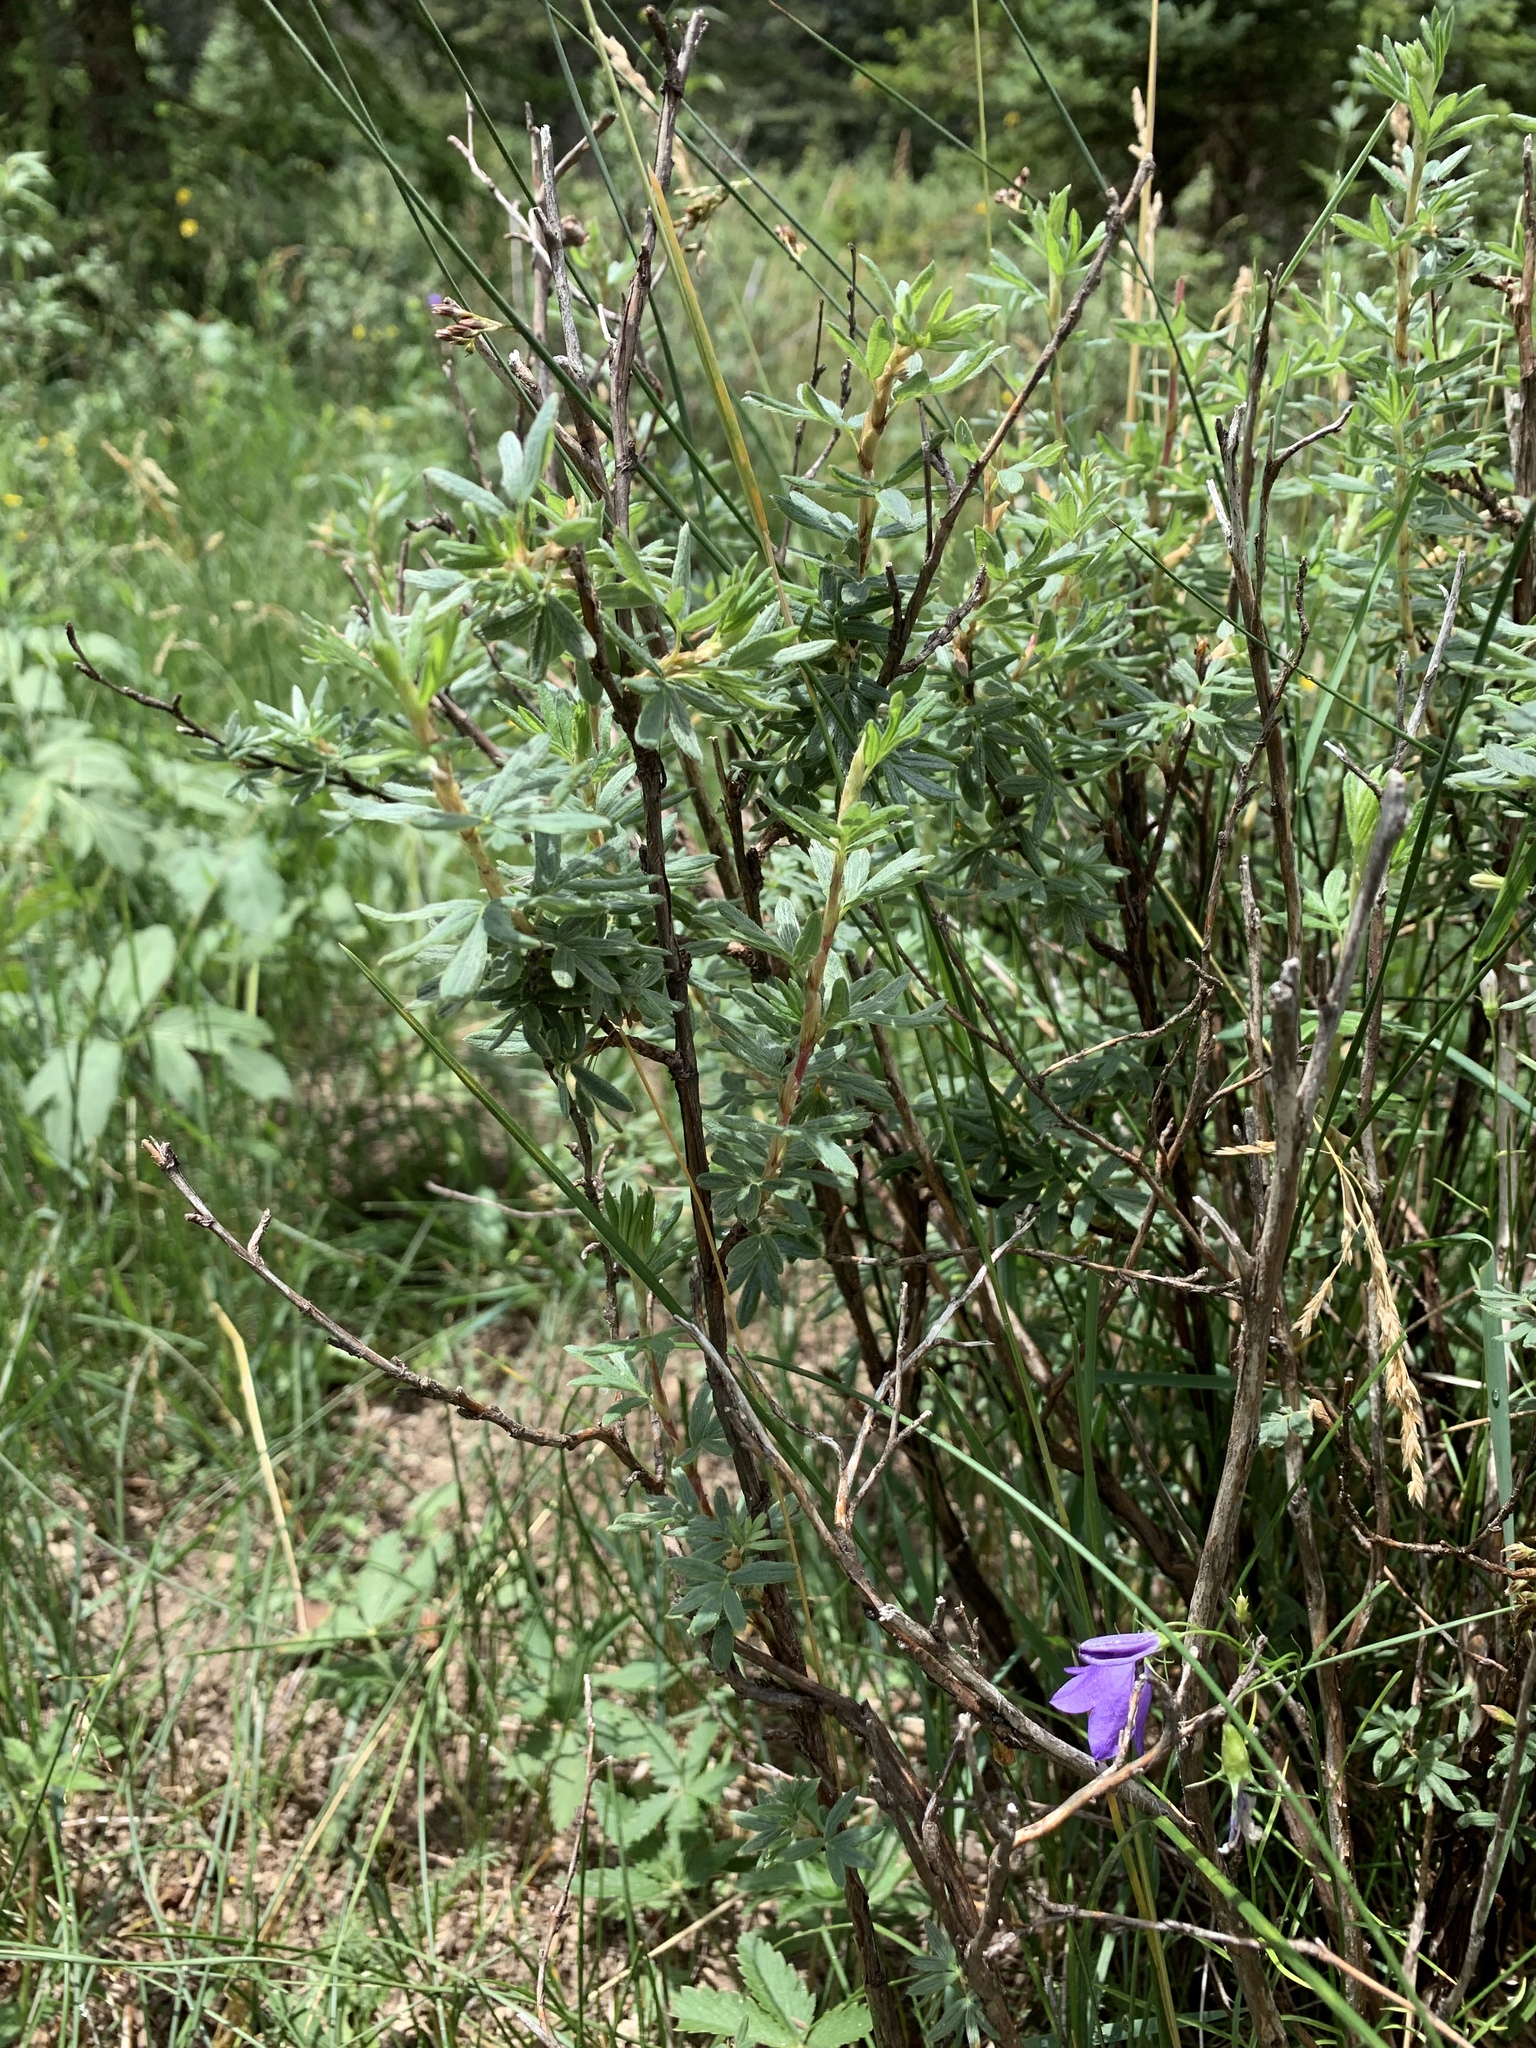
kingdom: Plantae
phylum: Tracheophyta
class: Magnoliopsida
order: Rosales
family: Rosaceae
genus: Dasiphora
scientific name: Dasiphora fruticosa
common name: Shrubby cinquefoil
